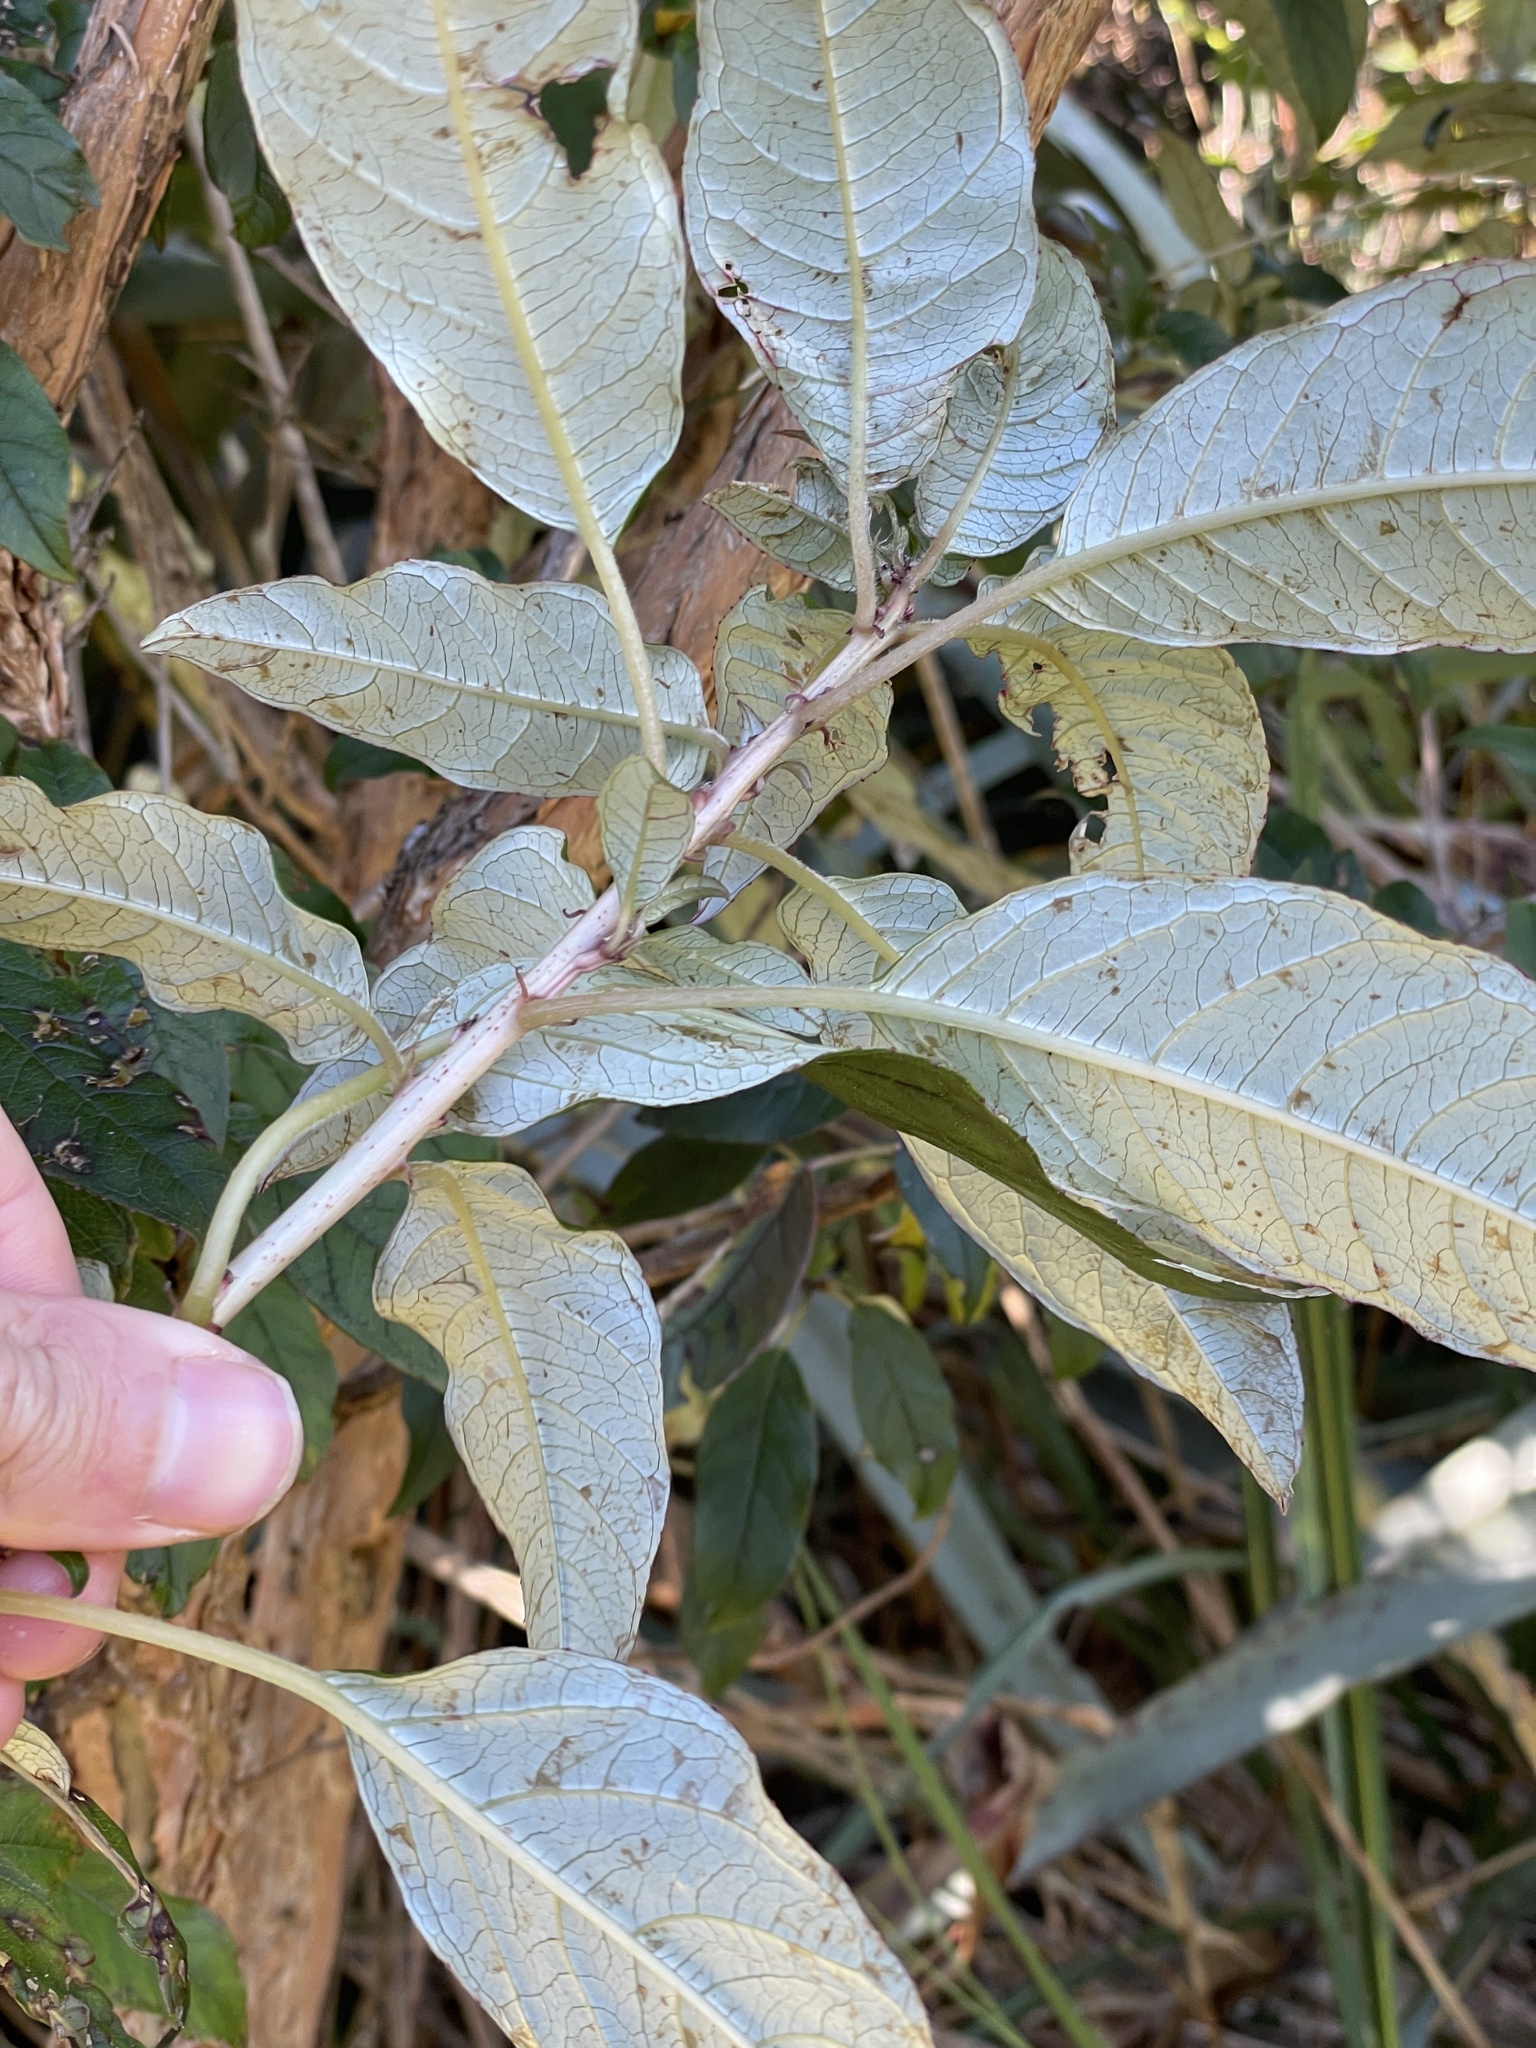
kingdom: Plantae
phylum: Tracheophyta
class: Magnoliopsida
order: Myrtales
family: Onagraceae
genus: Fuchsia
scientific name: Fuchsia excorticata
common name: Tree fuchsia
